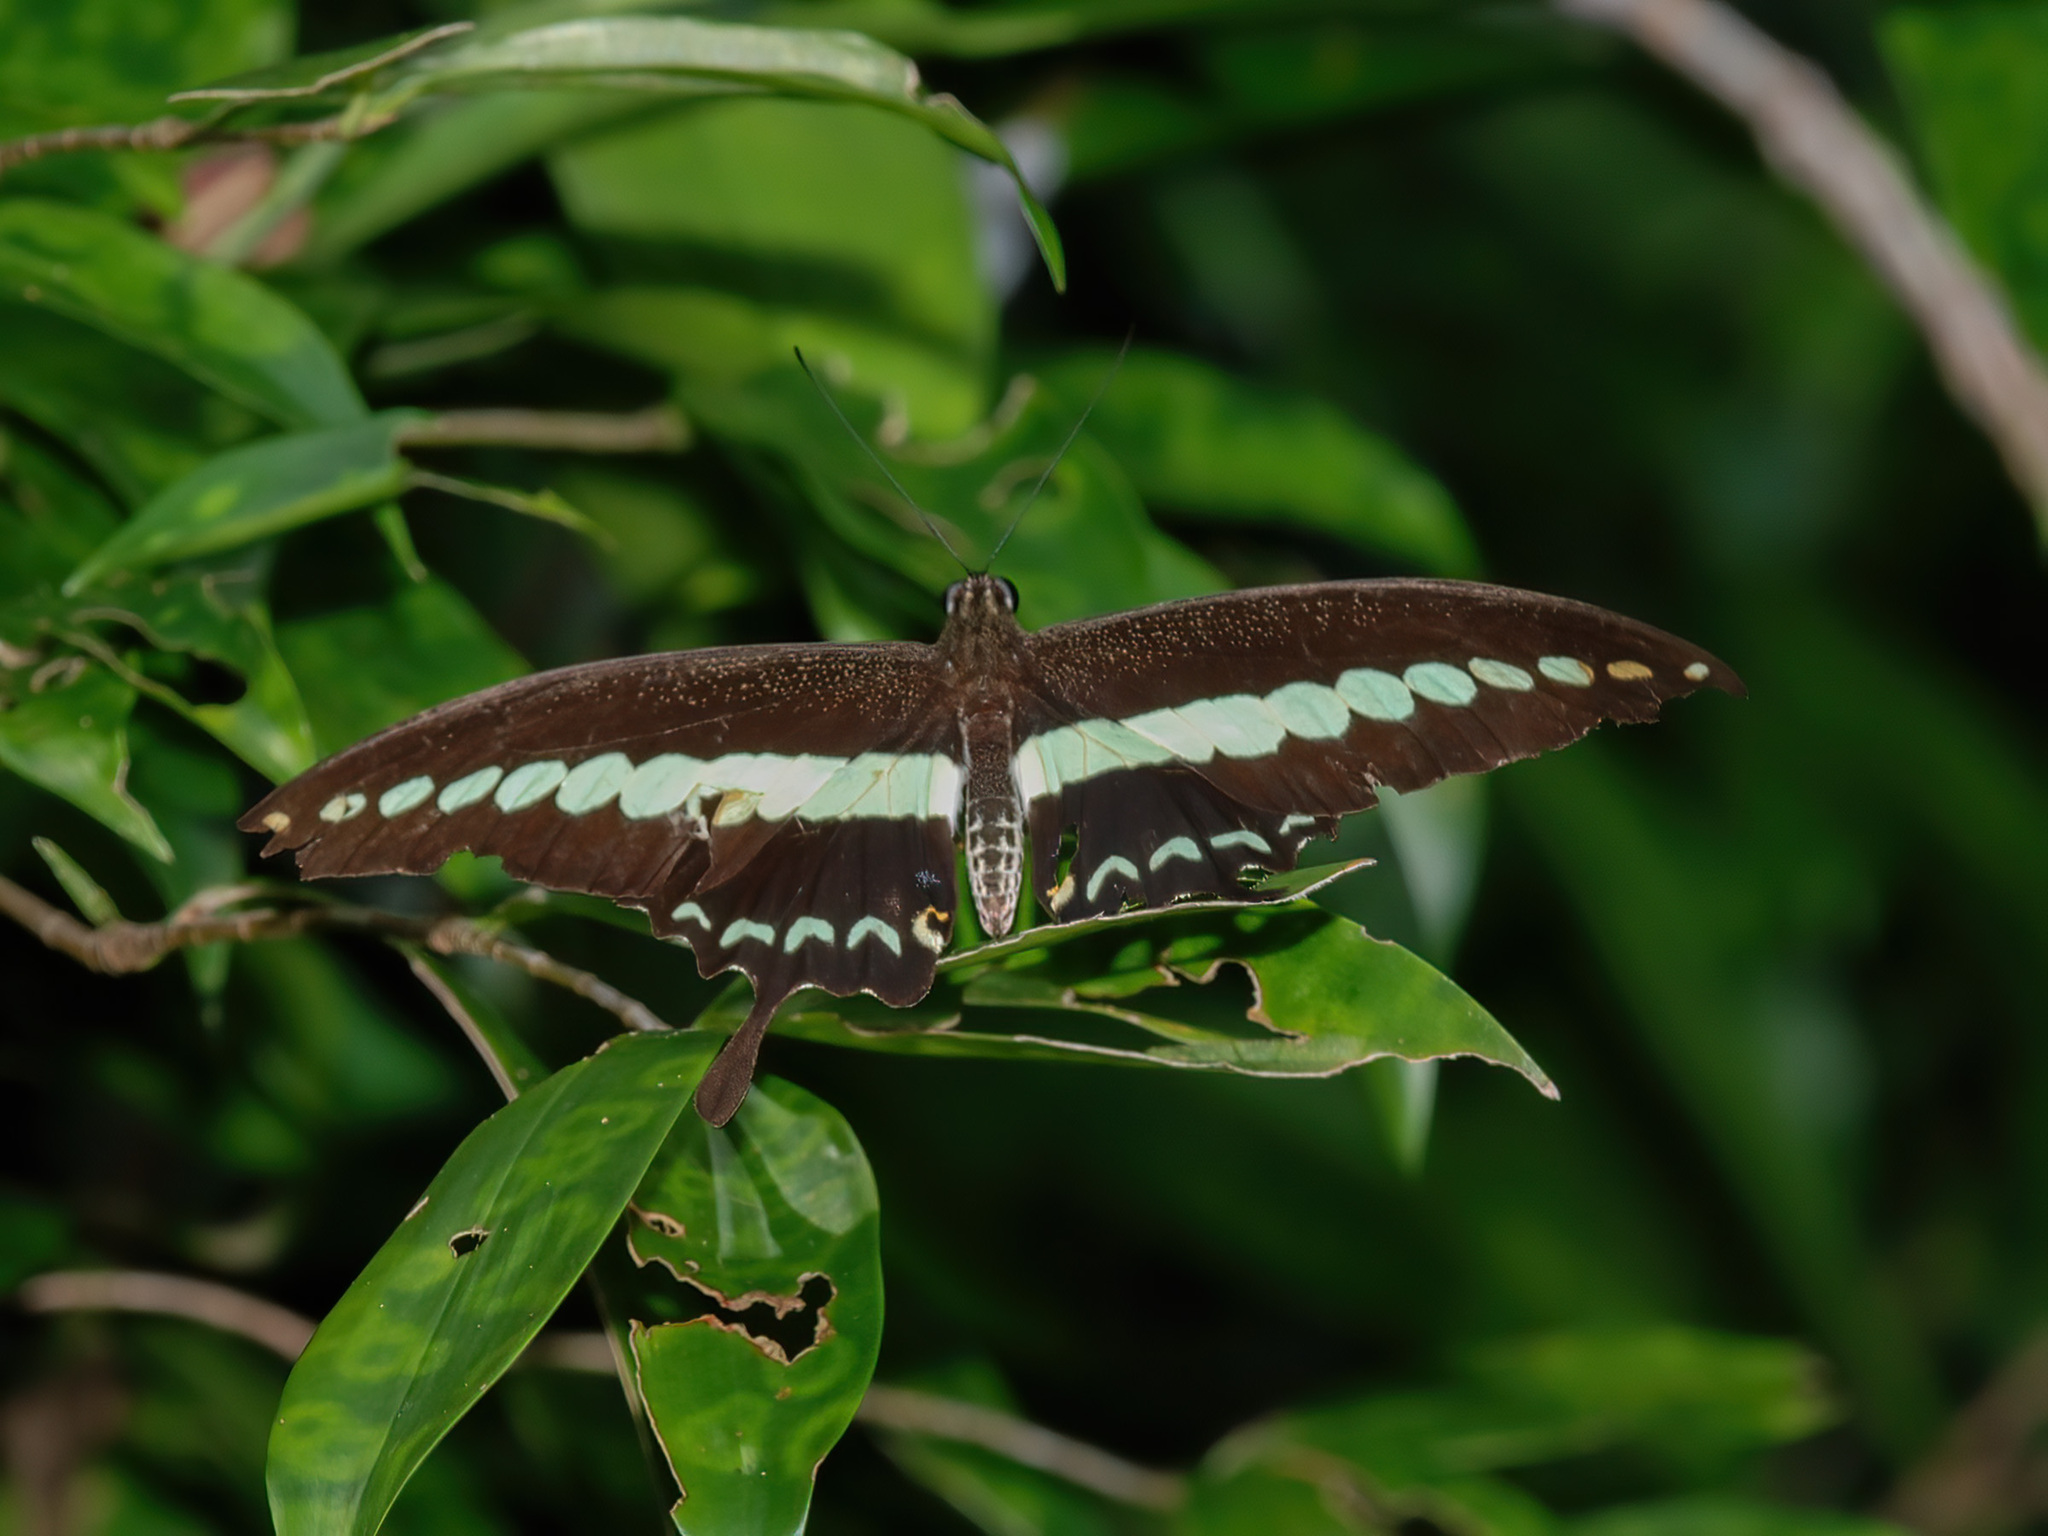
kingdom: Animalia
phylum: Arthropoda
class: Insecta
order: Lepidoptera
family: Papilionidae
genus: Papilio
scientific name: Papilio demolion
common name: Banded swallowtail
